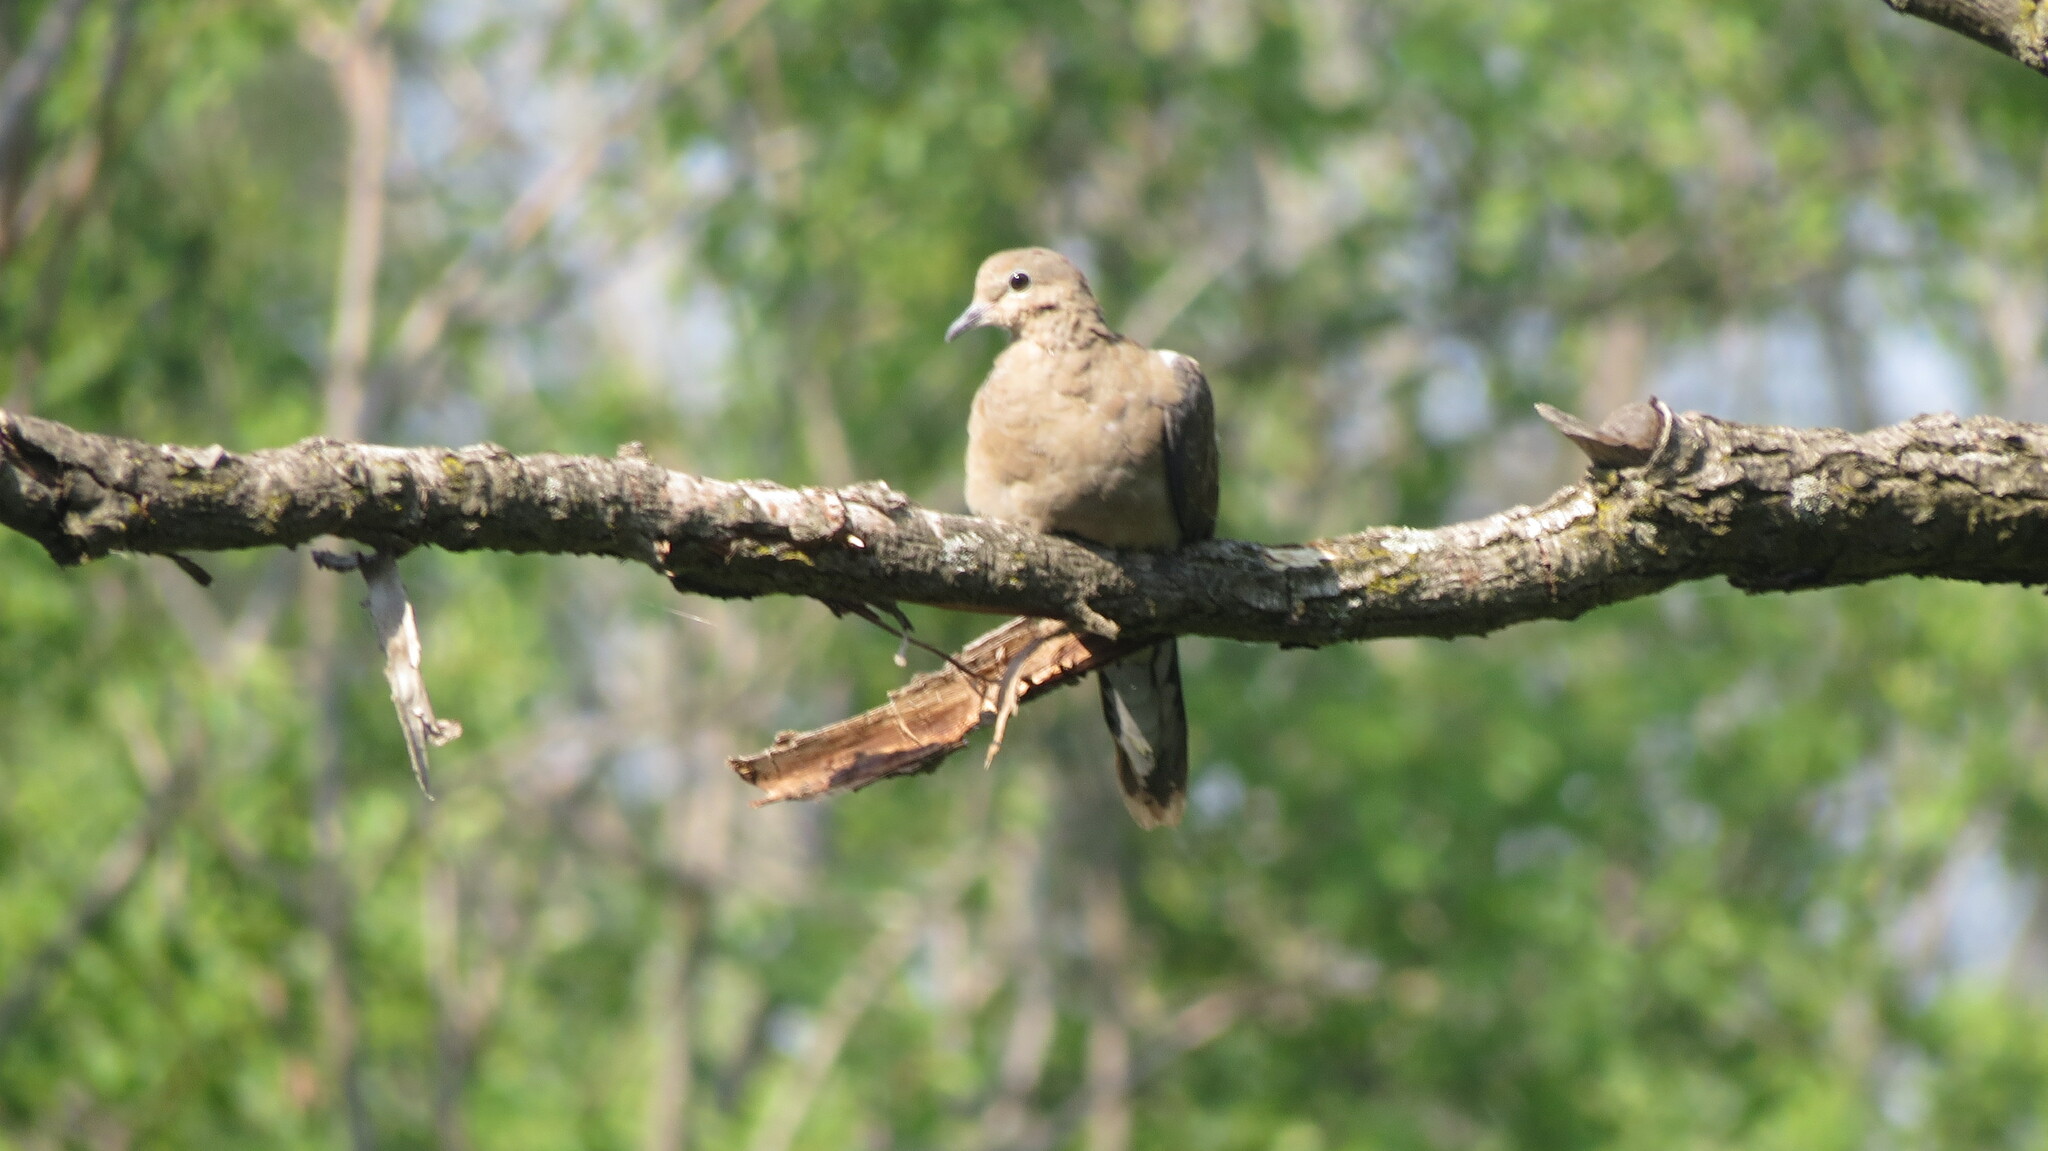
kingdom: Animalia
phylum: Chordata
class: Aves
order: Columbiformes
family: Columbidae
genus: Zenaida
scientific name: Zenaida macroura
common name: Mourning dove
